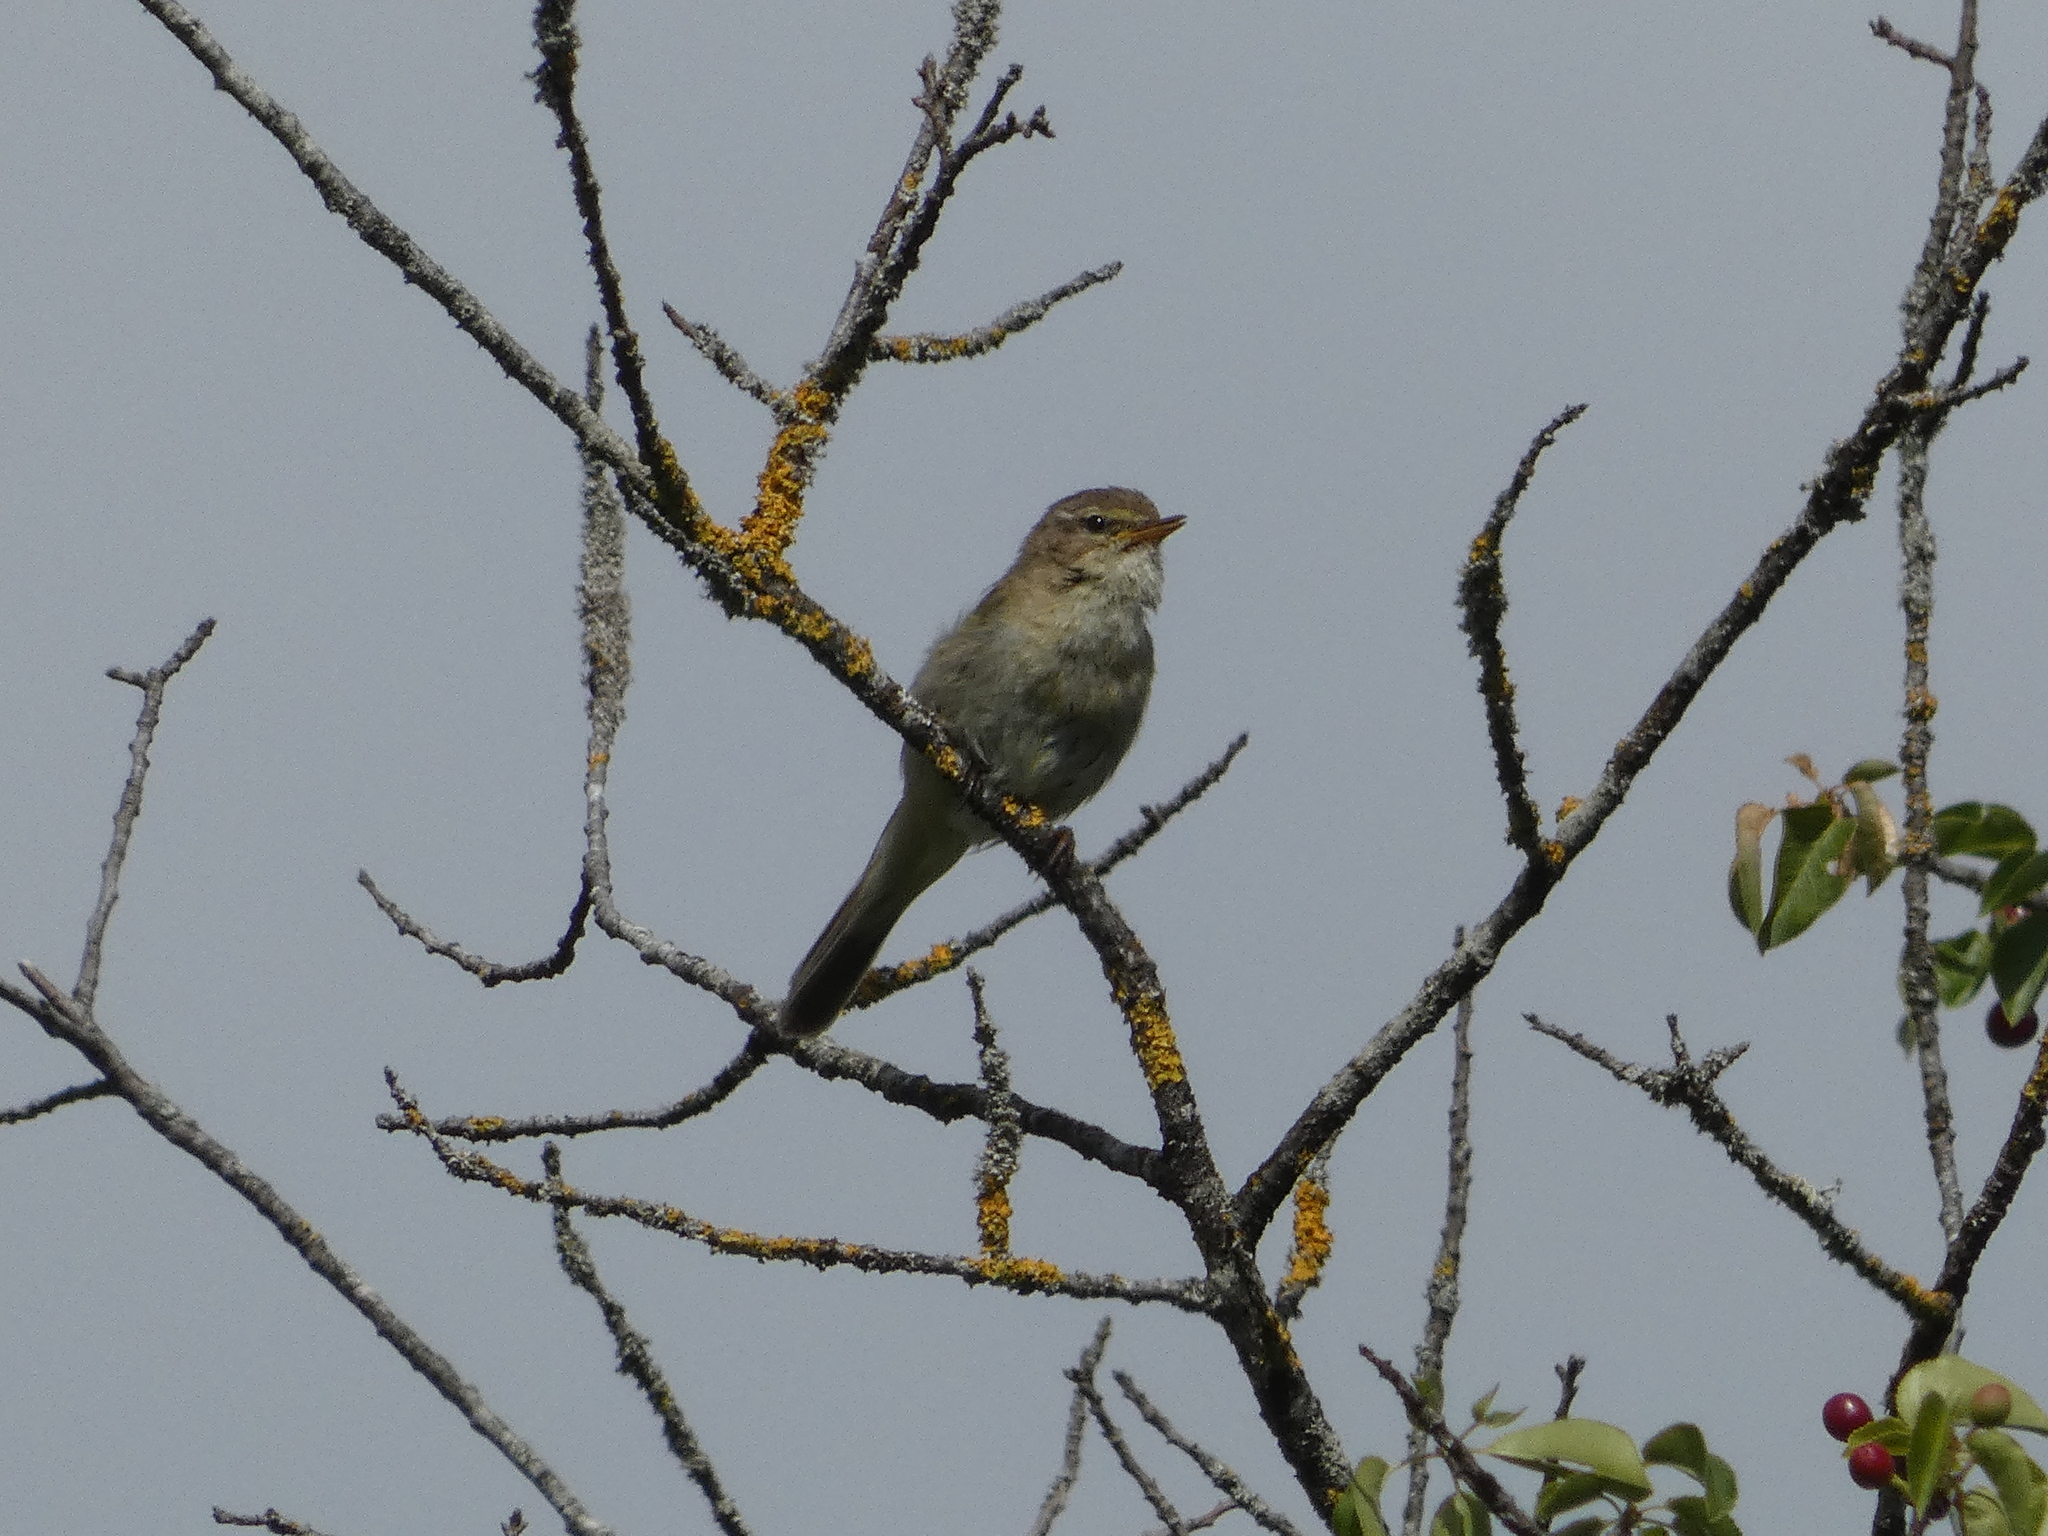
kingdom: Animalia
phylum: Chordata
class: Aves
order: Passeriformes
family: Phylloscopidae
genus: Phylloscopus
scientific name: Phylloscopus collybita
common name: Common chiffchaff
